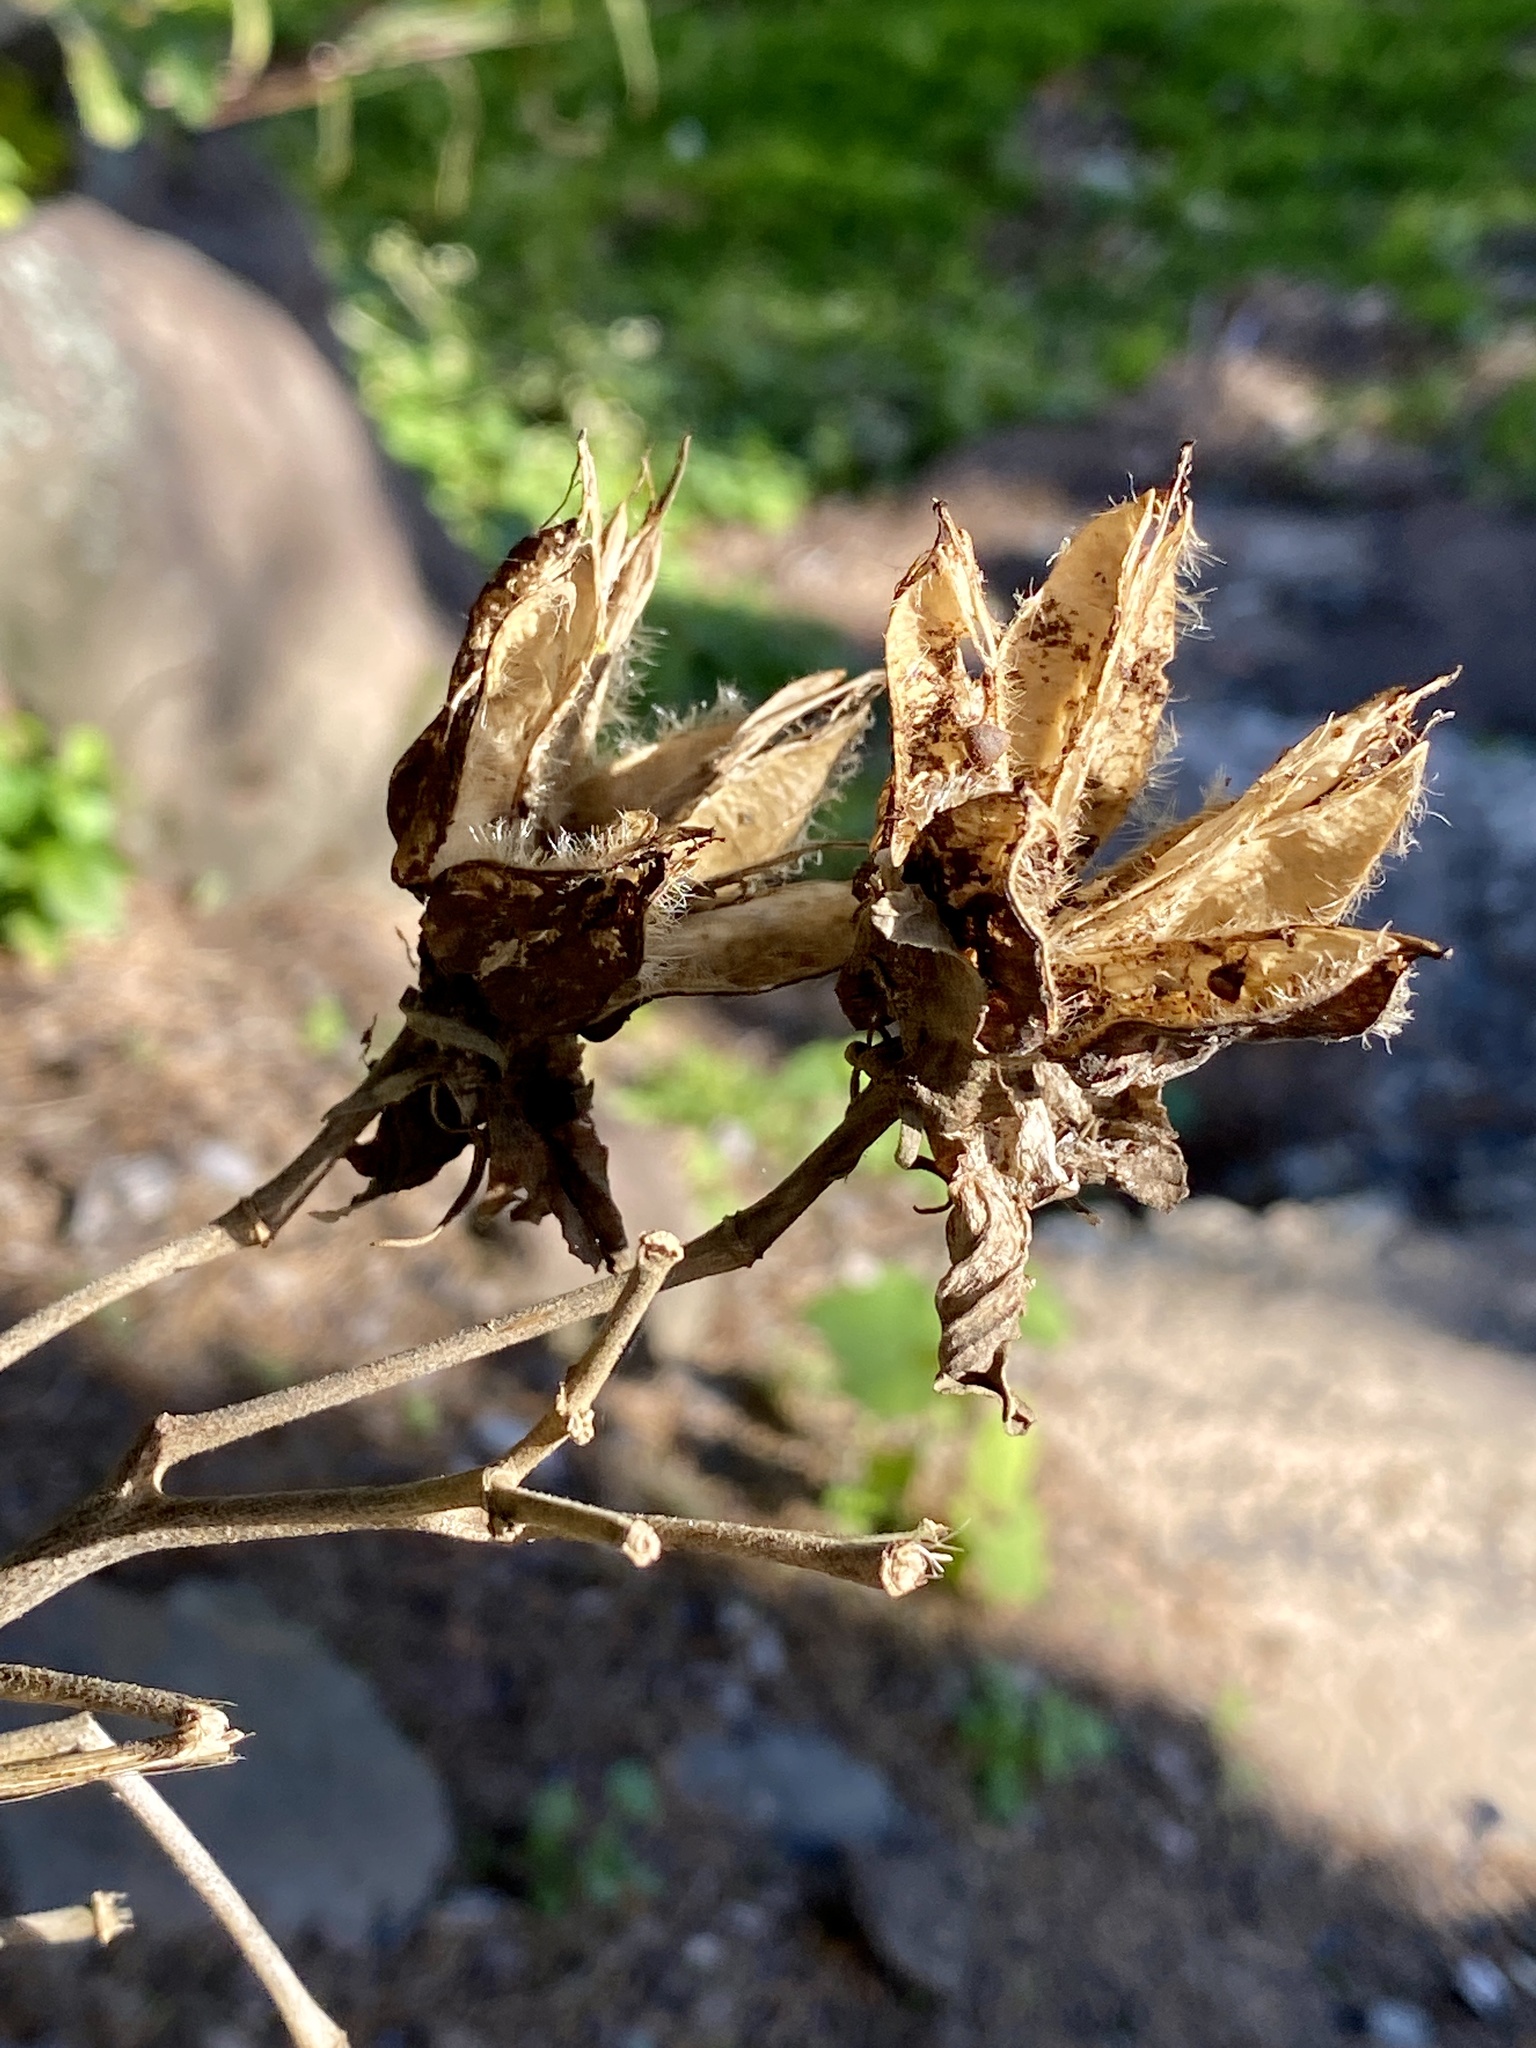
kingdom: Plantae
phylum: Tracheophyta
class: Magnoliopsida
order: Malvales
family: Malvaceae
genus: Hibiscus
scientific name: Hibiscus moscheutos
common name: Common rose-mallow
